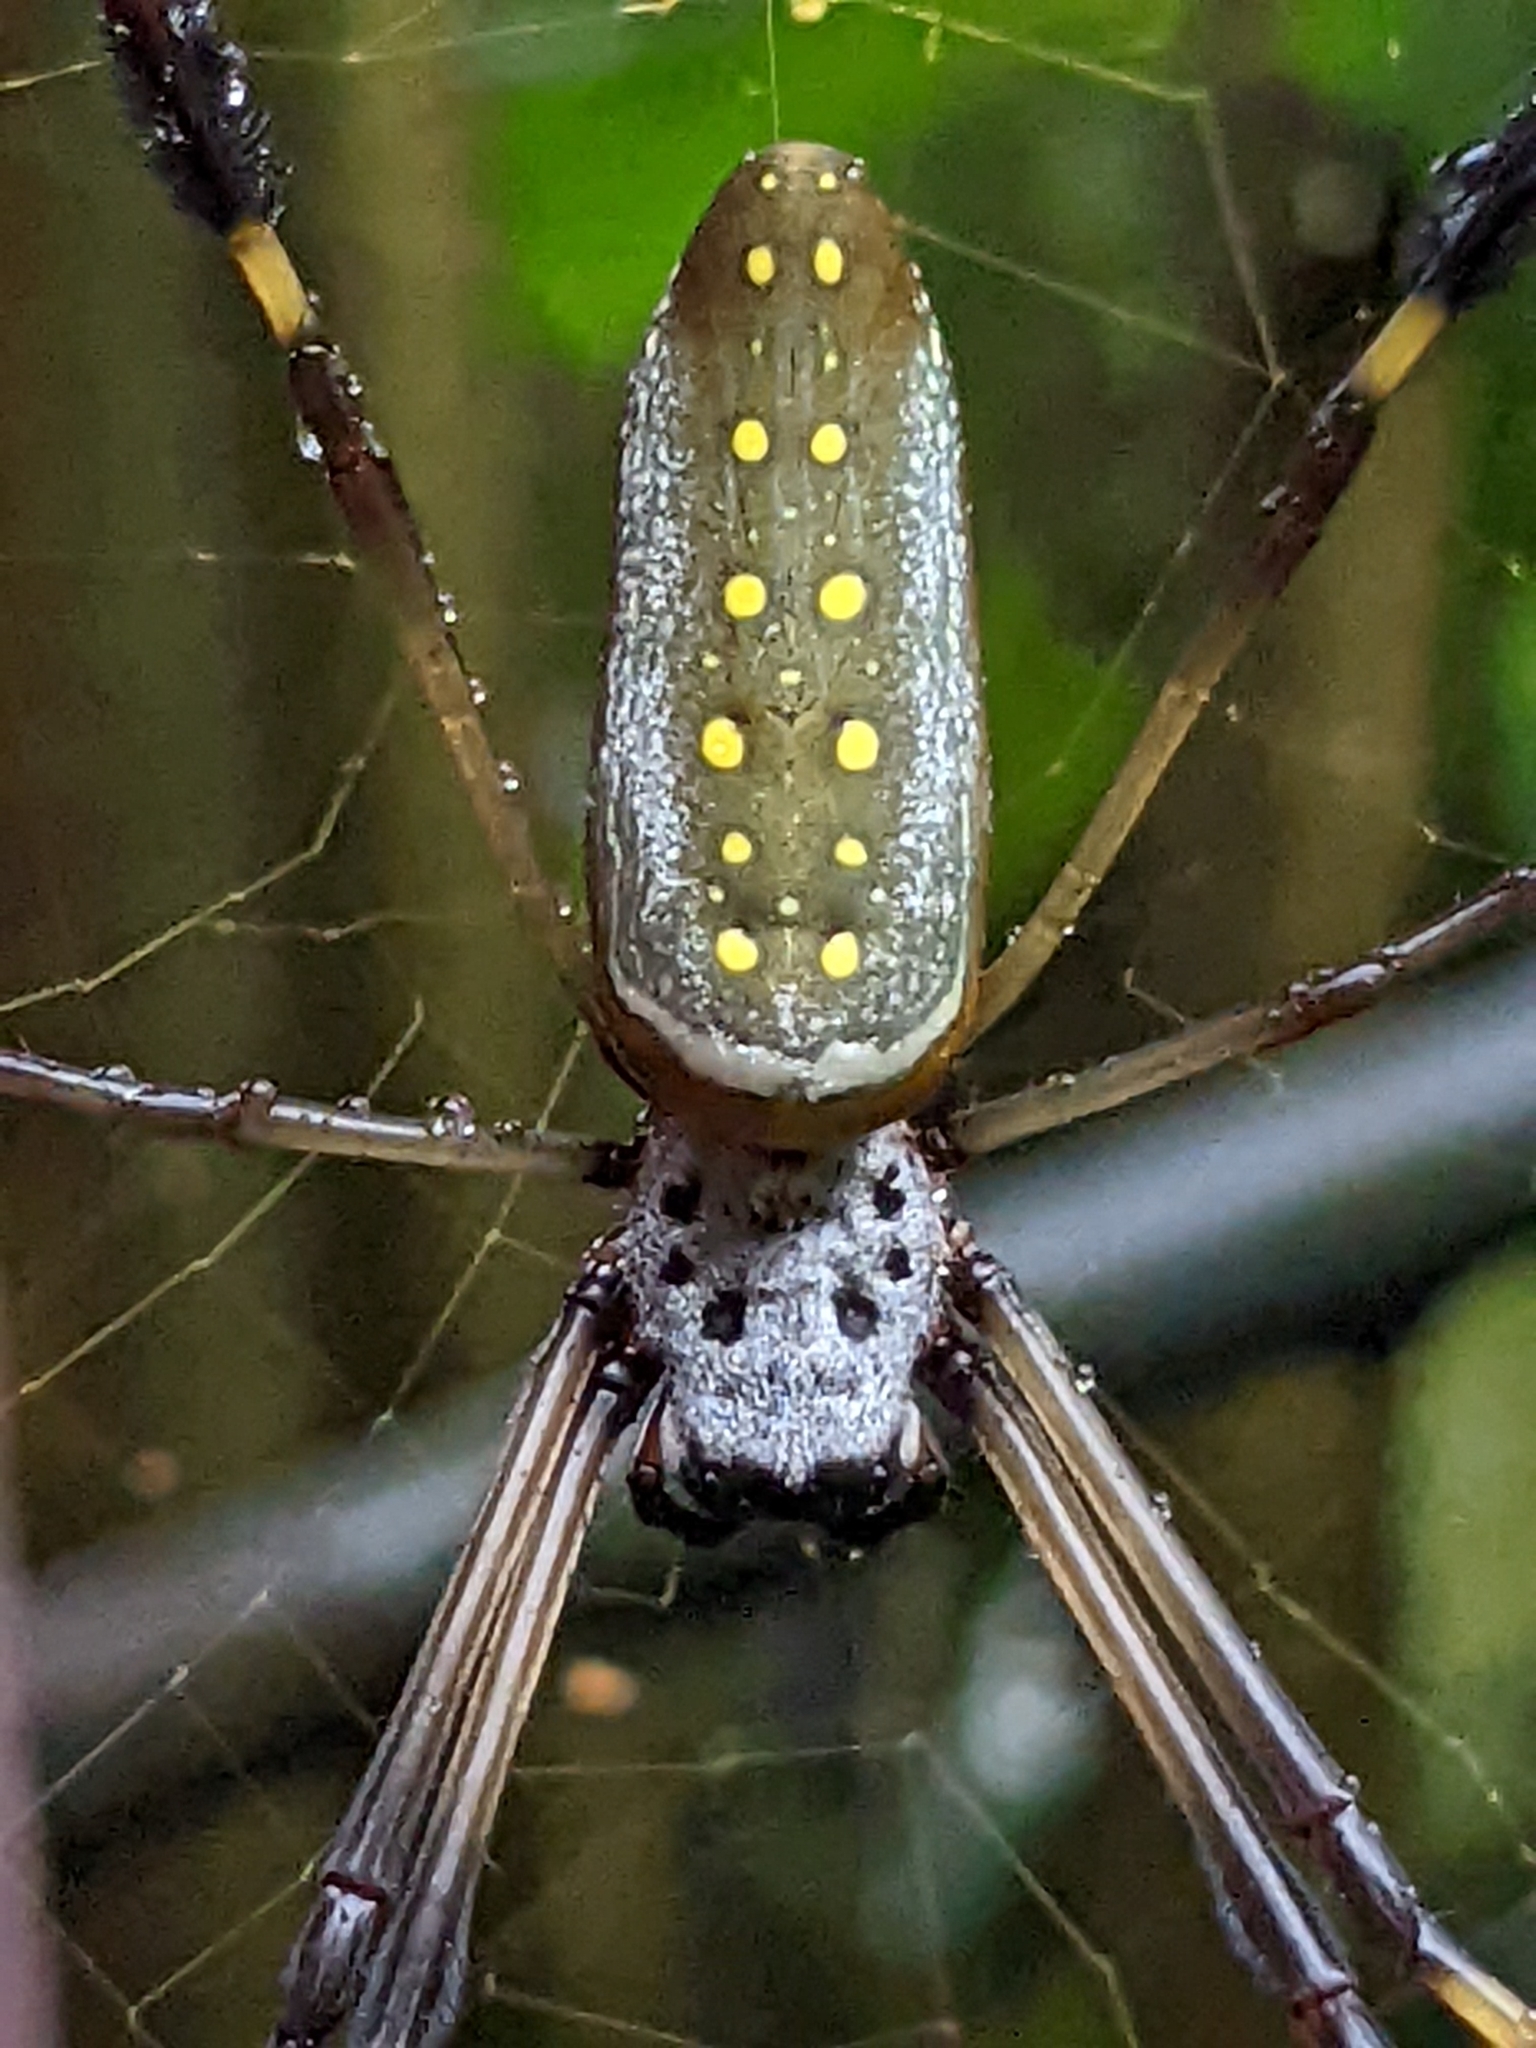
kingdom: Animalia
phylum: Arthropoda
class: Arachnida
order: Araneae
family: Araneidae
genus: Trichonephila
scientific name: Trichonephila clavipes
